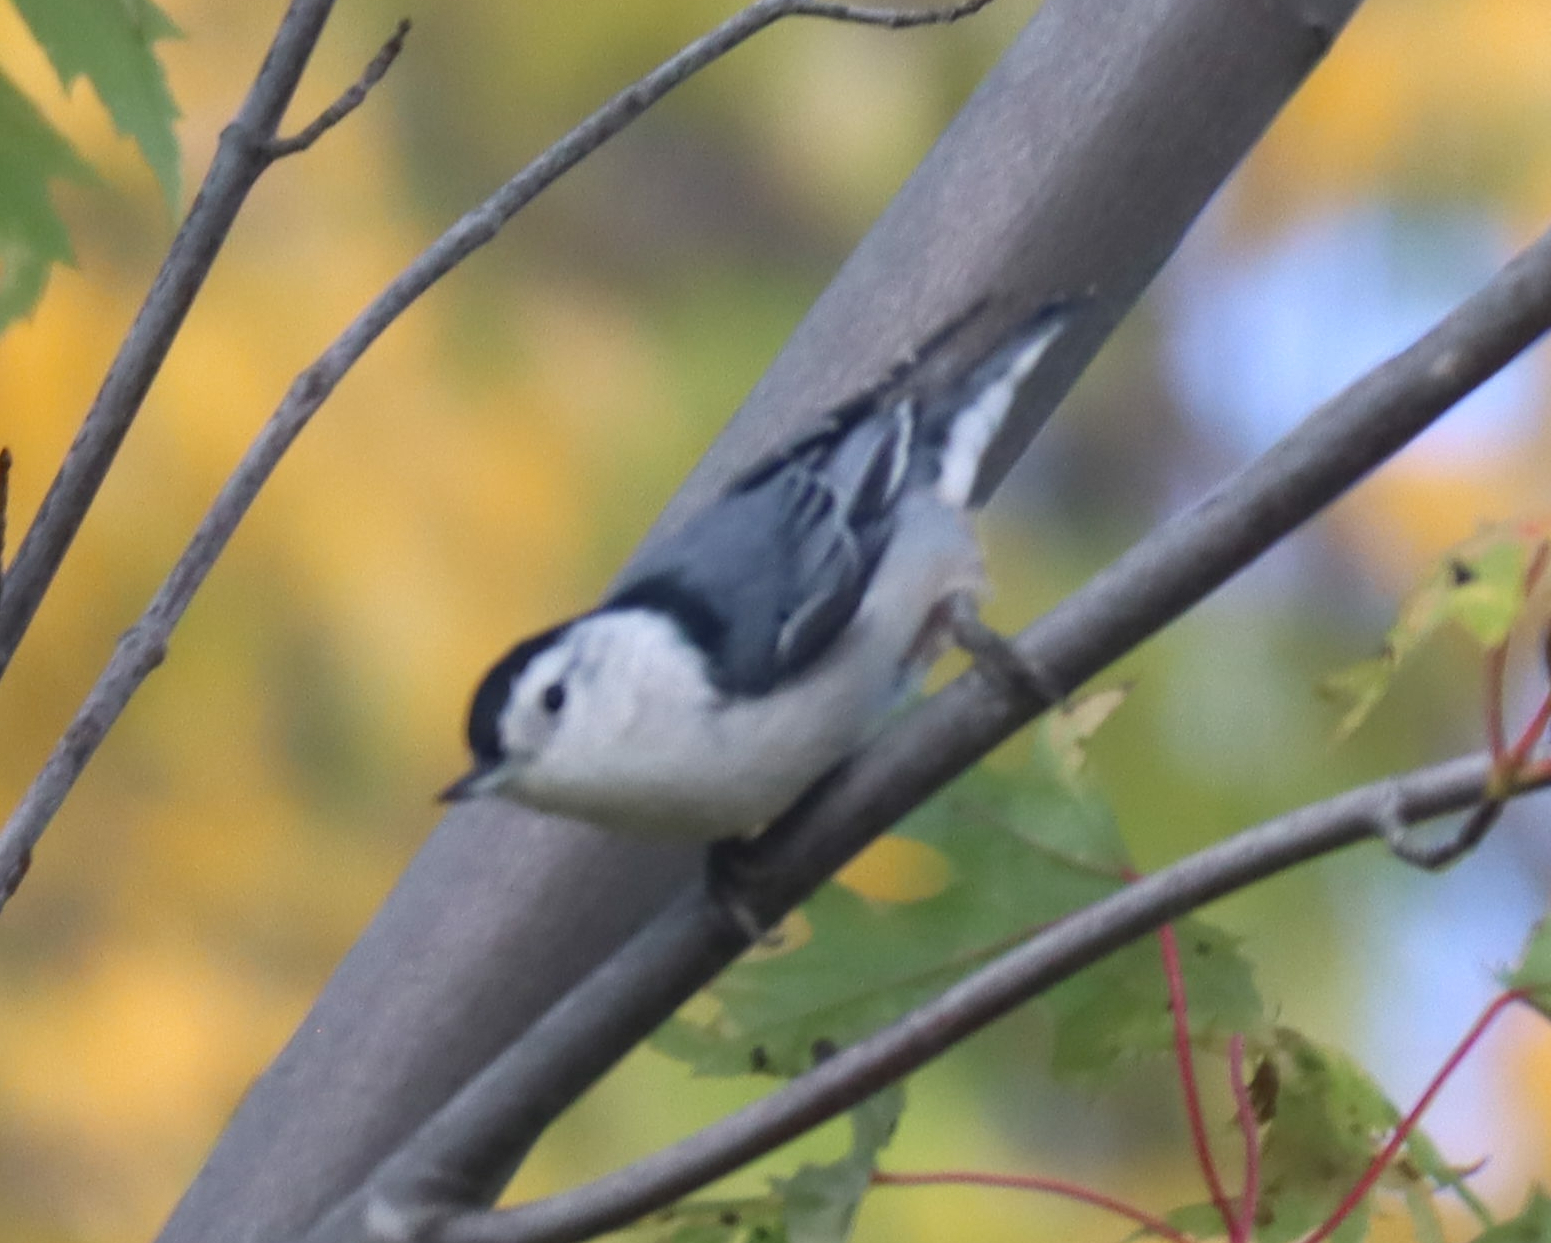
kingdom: Animalia
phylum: Chordata
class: Aves
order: Passeriformes
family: Sittidae
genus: Sitta
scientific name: Sitta carolinensis
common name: White-breasted nuthatch
